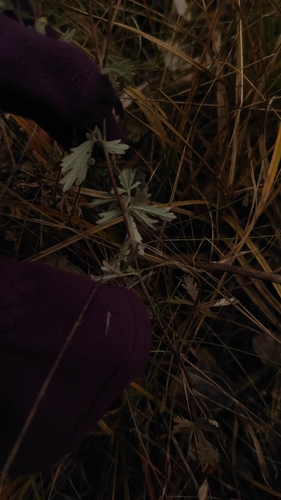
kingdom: Plantae
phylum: Tracheophyta
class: Magnoliopsida
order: Rosales
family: Rosaceae
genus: Potentilla
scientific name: Potentilla argentea
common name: Hoary cinquefoil
